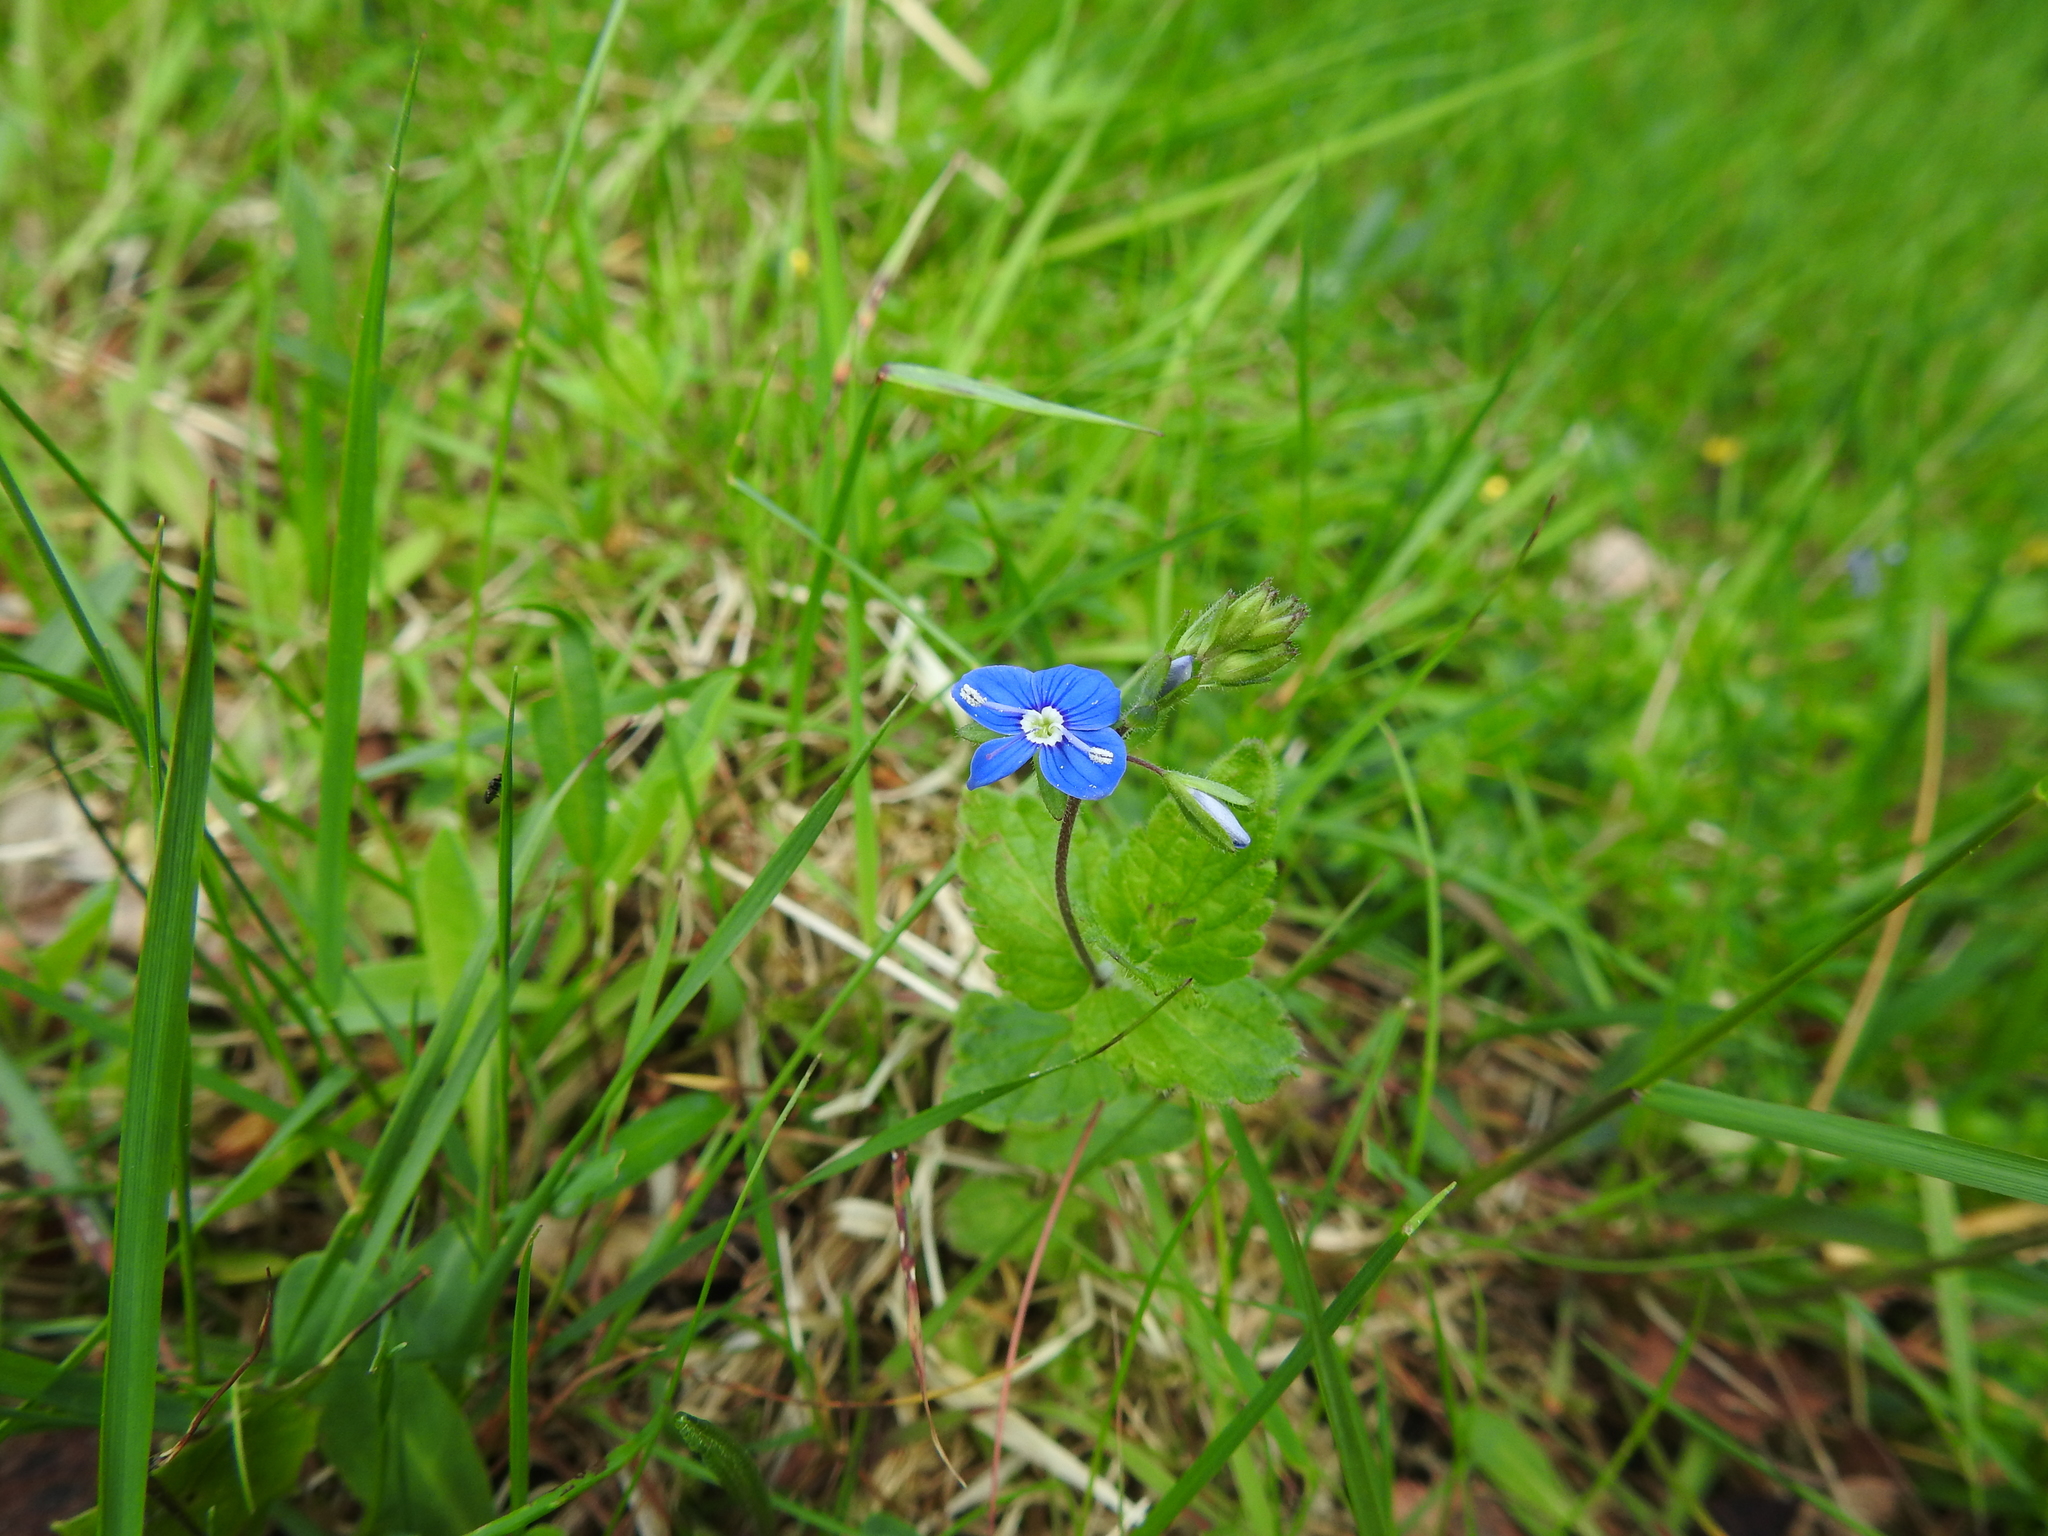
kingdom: Plantae
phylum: Tracheophyta
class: Magnoliopsida
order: Lamiales
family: Plantaginaceae
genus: Veronica
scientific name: Veronica chamaedrys
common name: Germander speedwell
